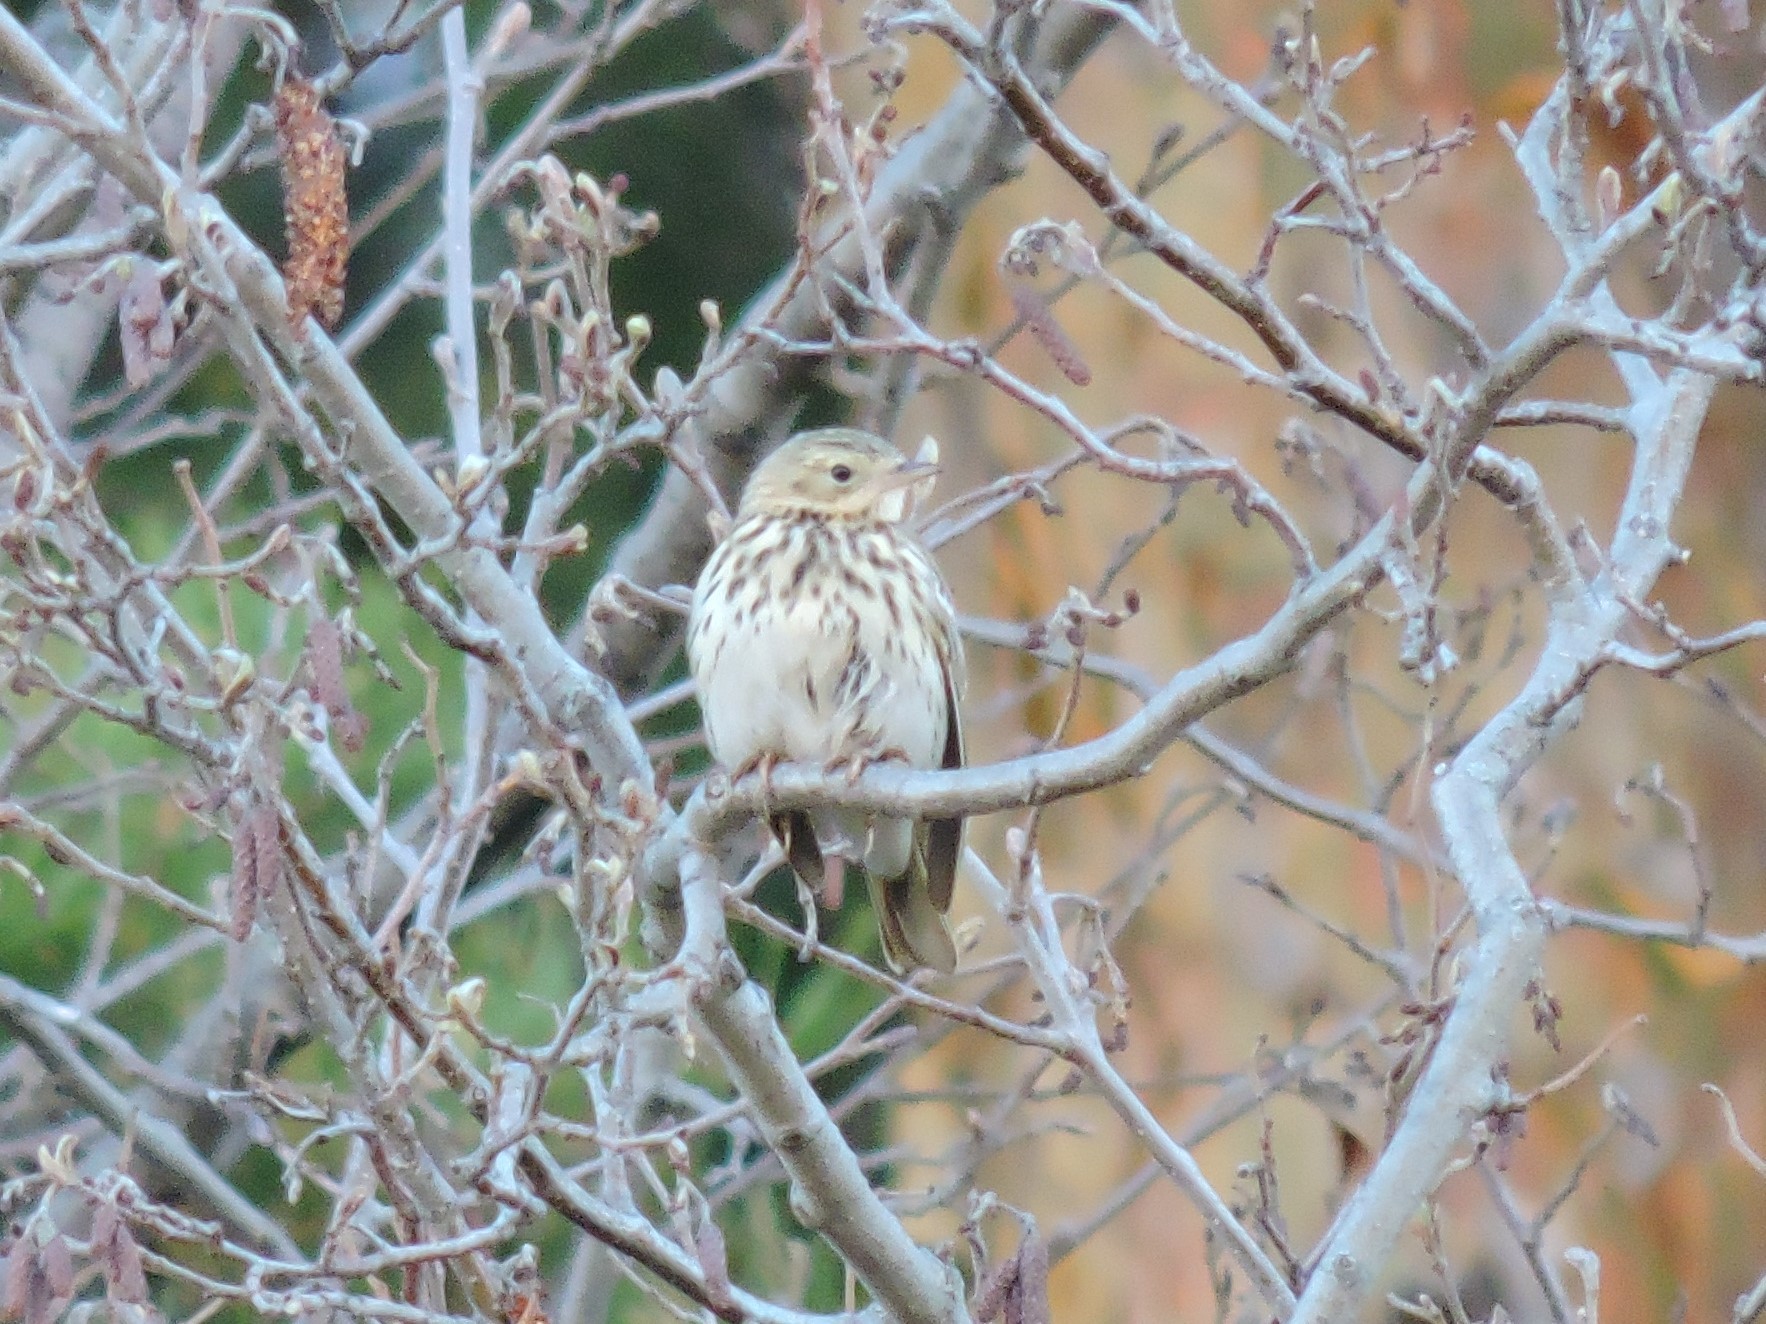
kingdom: Animalia
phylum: Chordata
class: Aves
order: Passeriformes
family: Motacillidae
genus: Anthus
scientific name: Anthus trivialis
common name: Tree pipit
